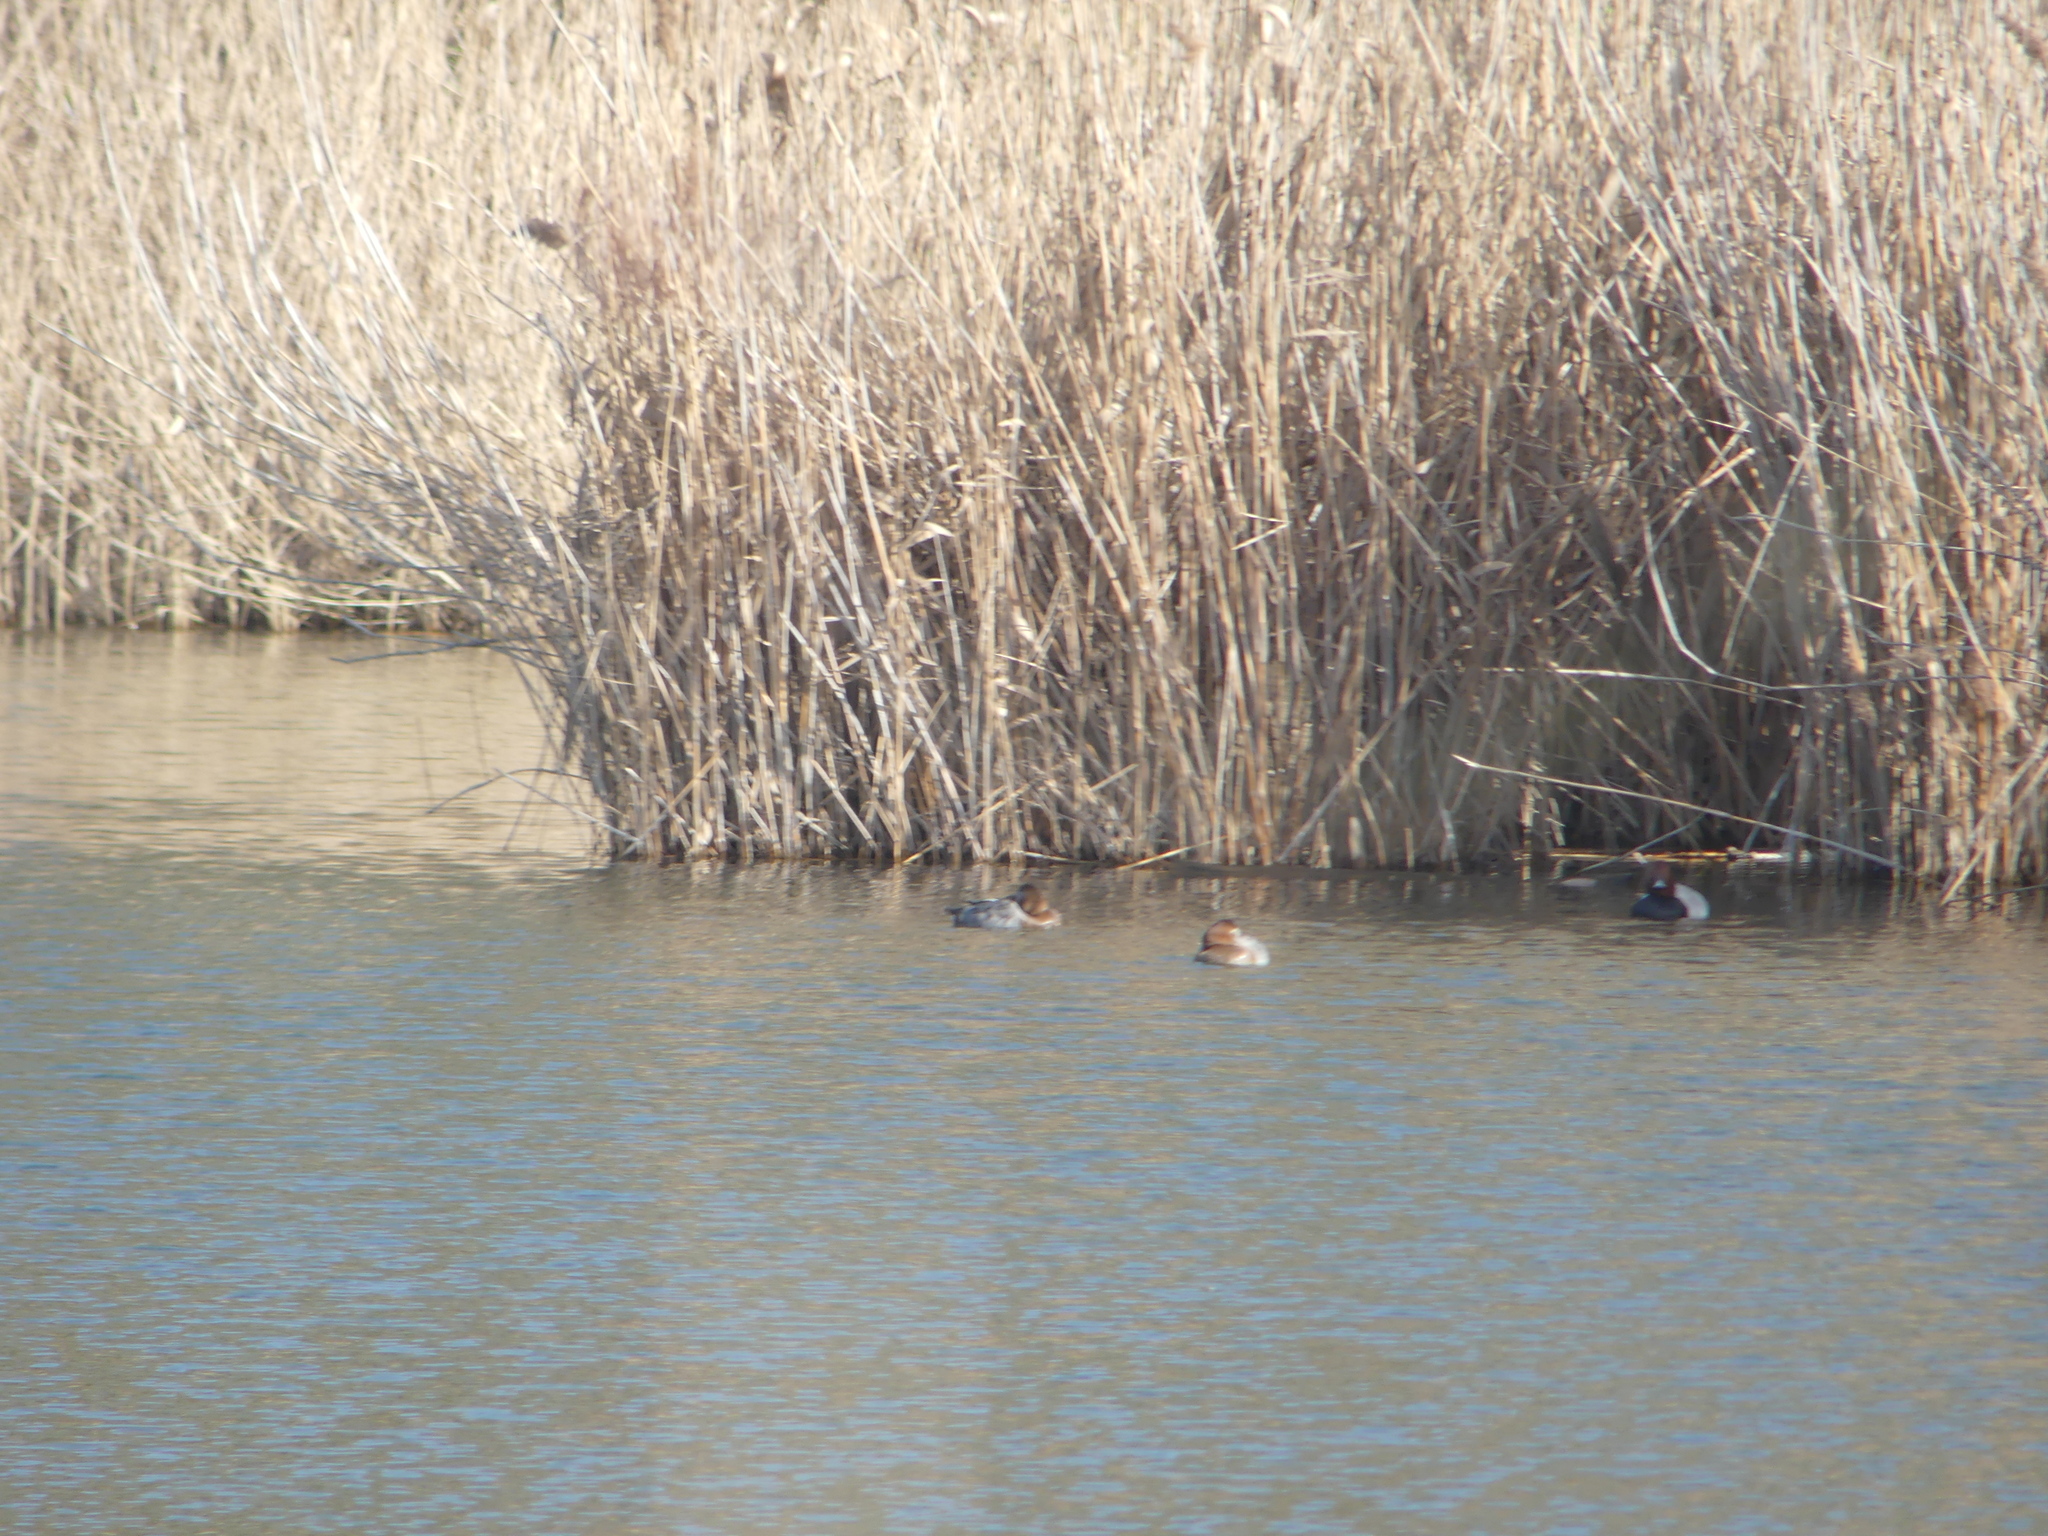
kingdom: Animalia
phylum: Chordata
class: Aves
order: Anseriformes
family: Anatidae
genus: Aythya
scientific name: Aythya ferina
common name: Common pochard
